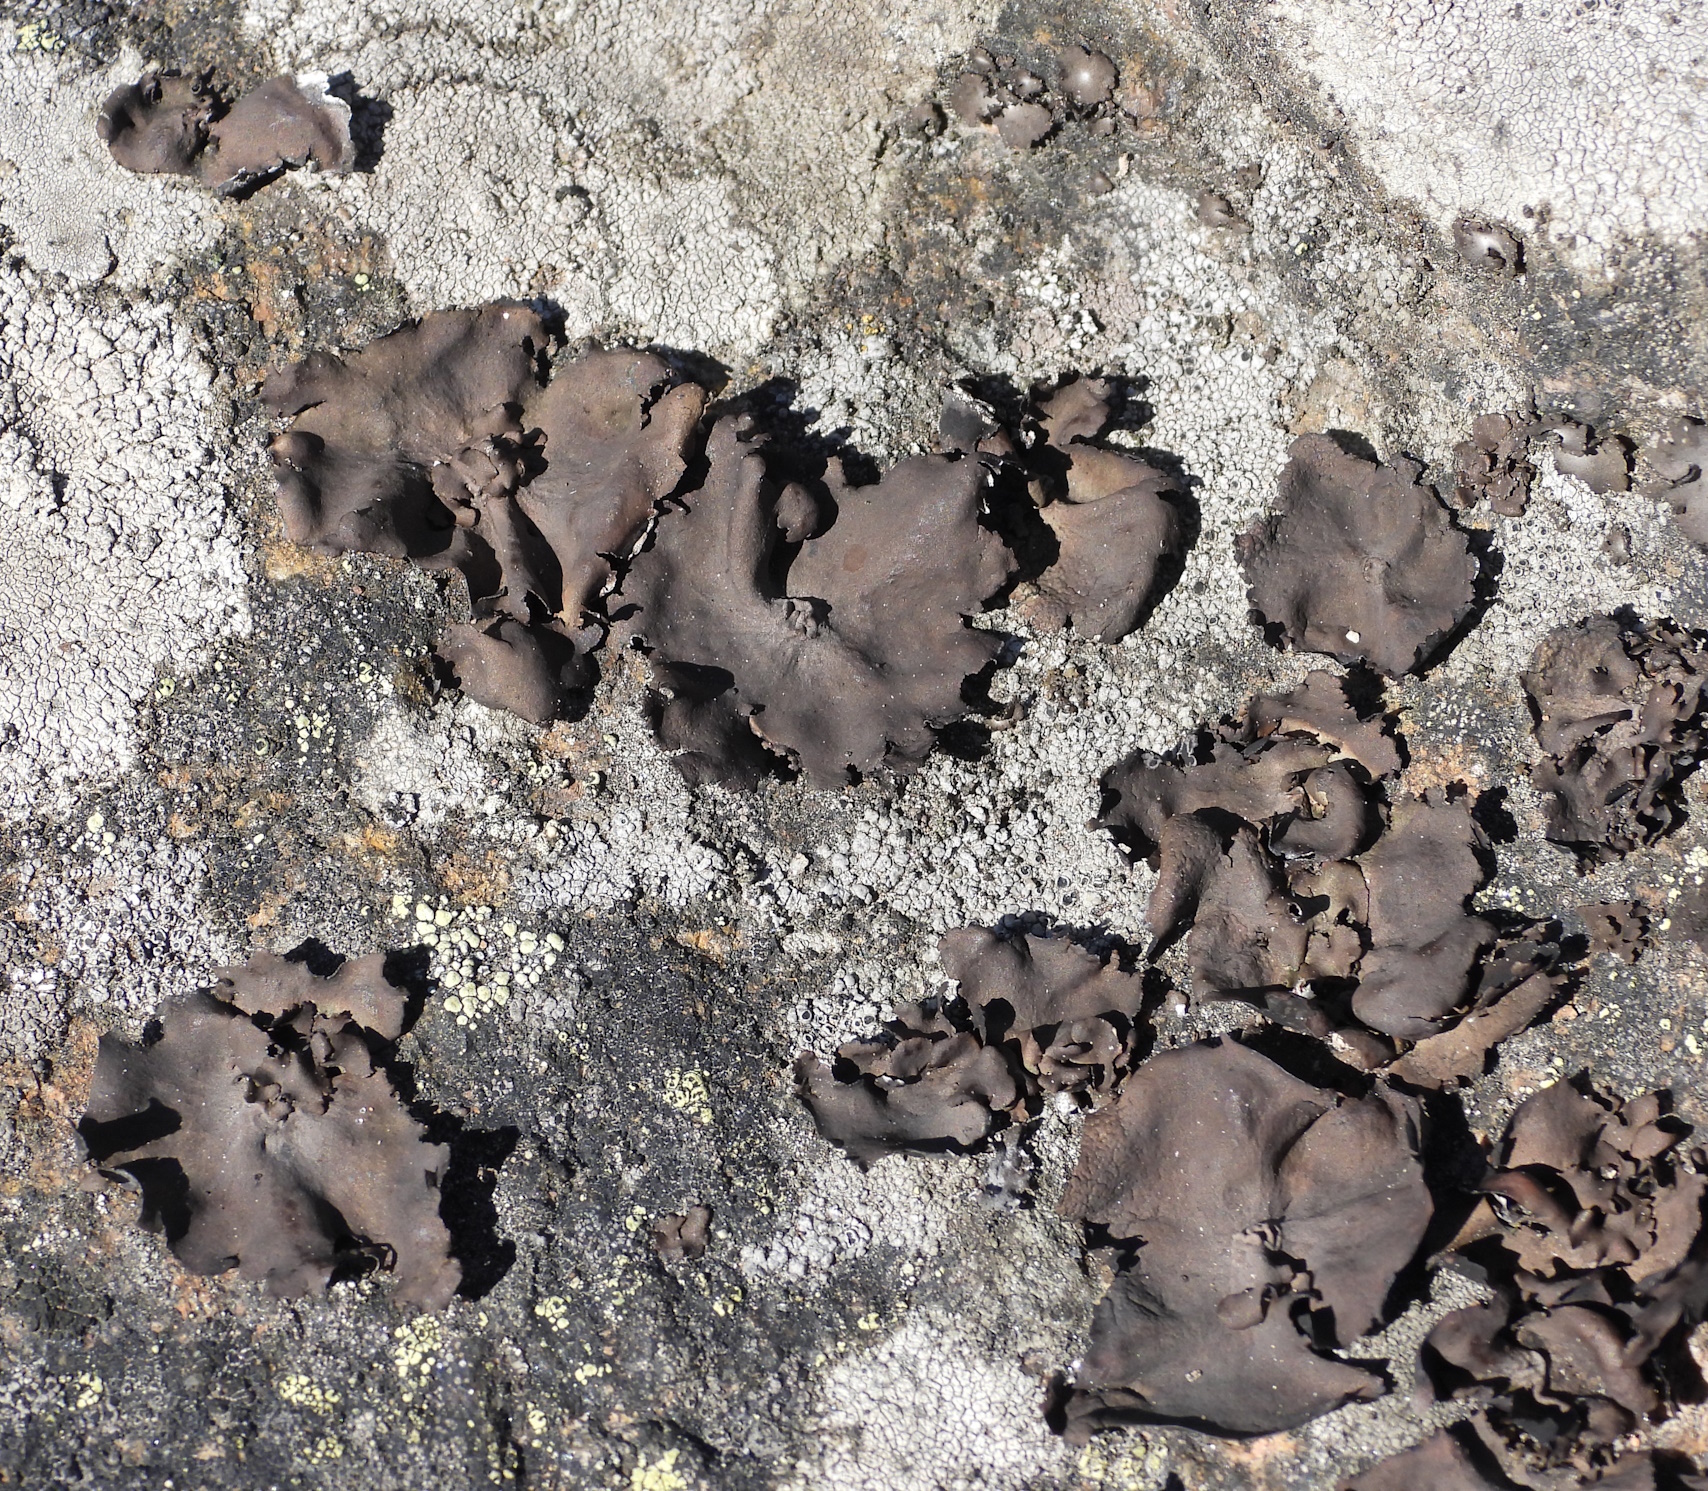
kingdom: Fungi
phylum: Ascomycota
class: Lecanoromycetes
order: Umbilicariales
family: Umbilicariaceae
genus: Umbilicaria
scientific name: Umbilicaria polyphylla
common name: Petalled rocktripe lichen
